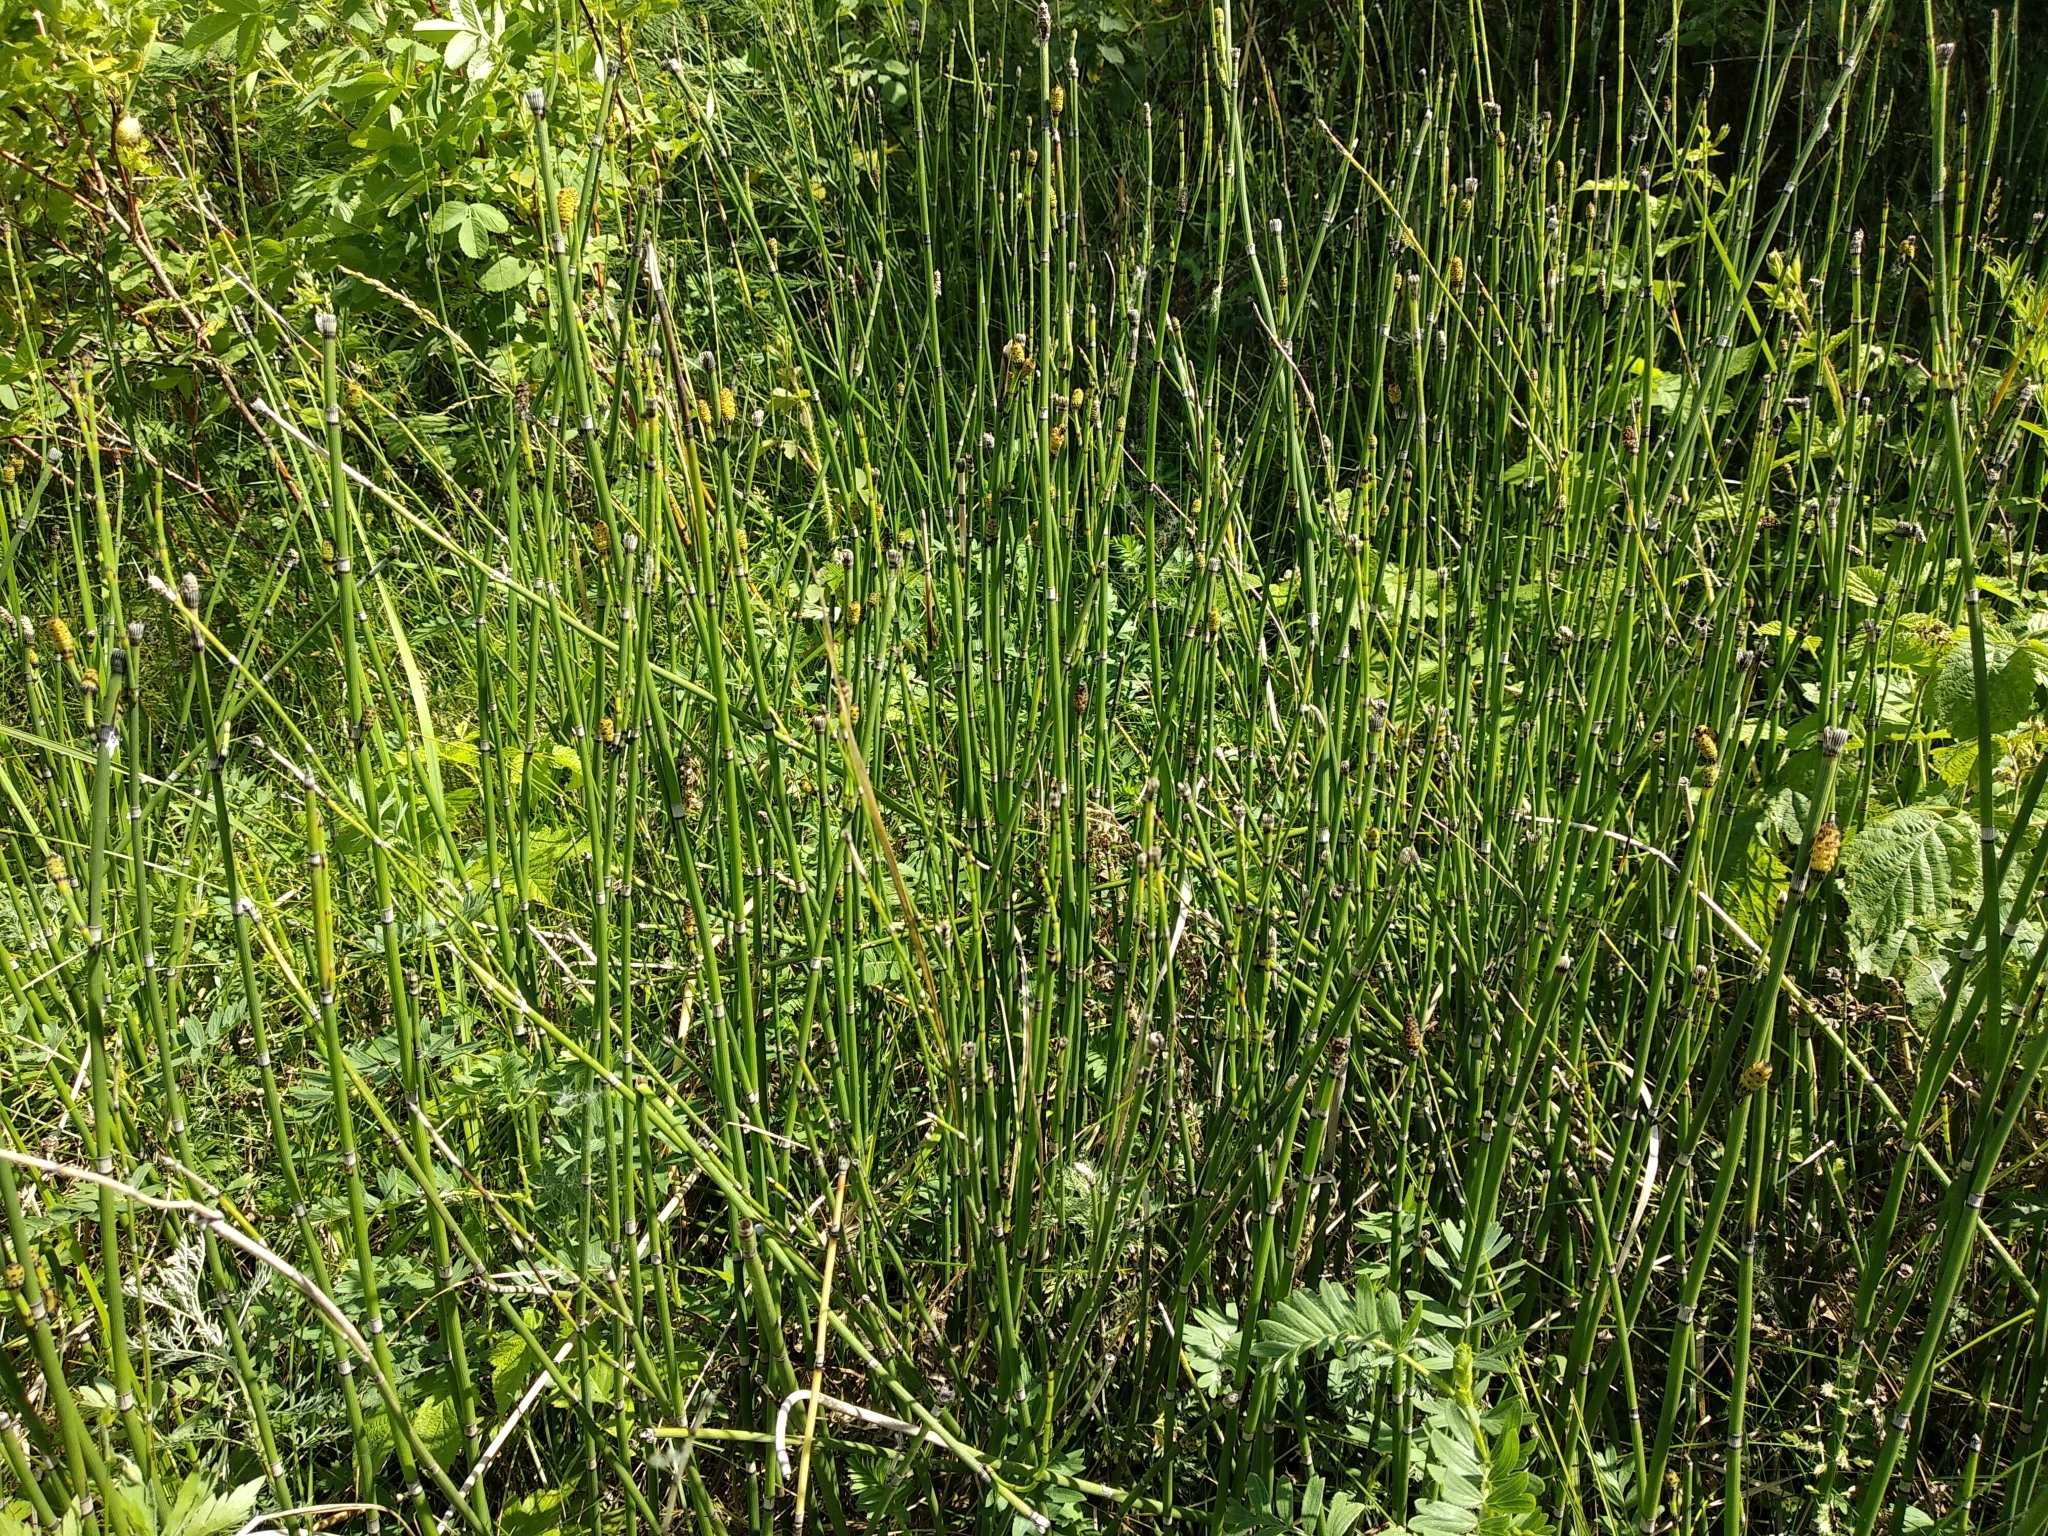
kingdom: Plantae
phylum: Tracheophyta
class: Polypodiopsida
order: Equisetales
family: Equisetaceae
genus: Equisetum
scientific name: Equisetum hyemale
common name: Rough horsetail
